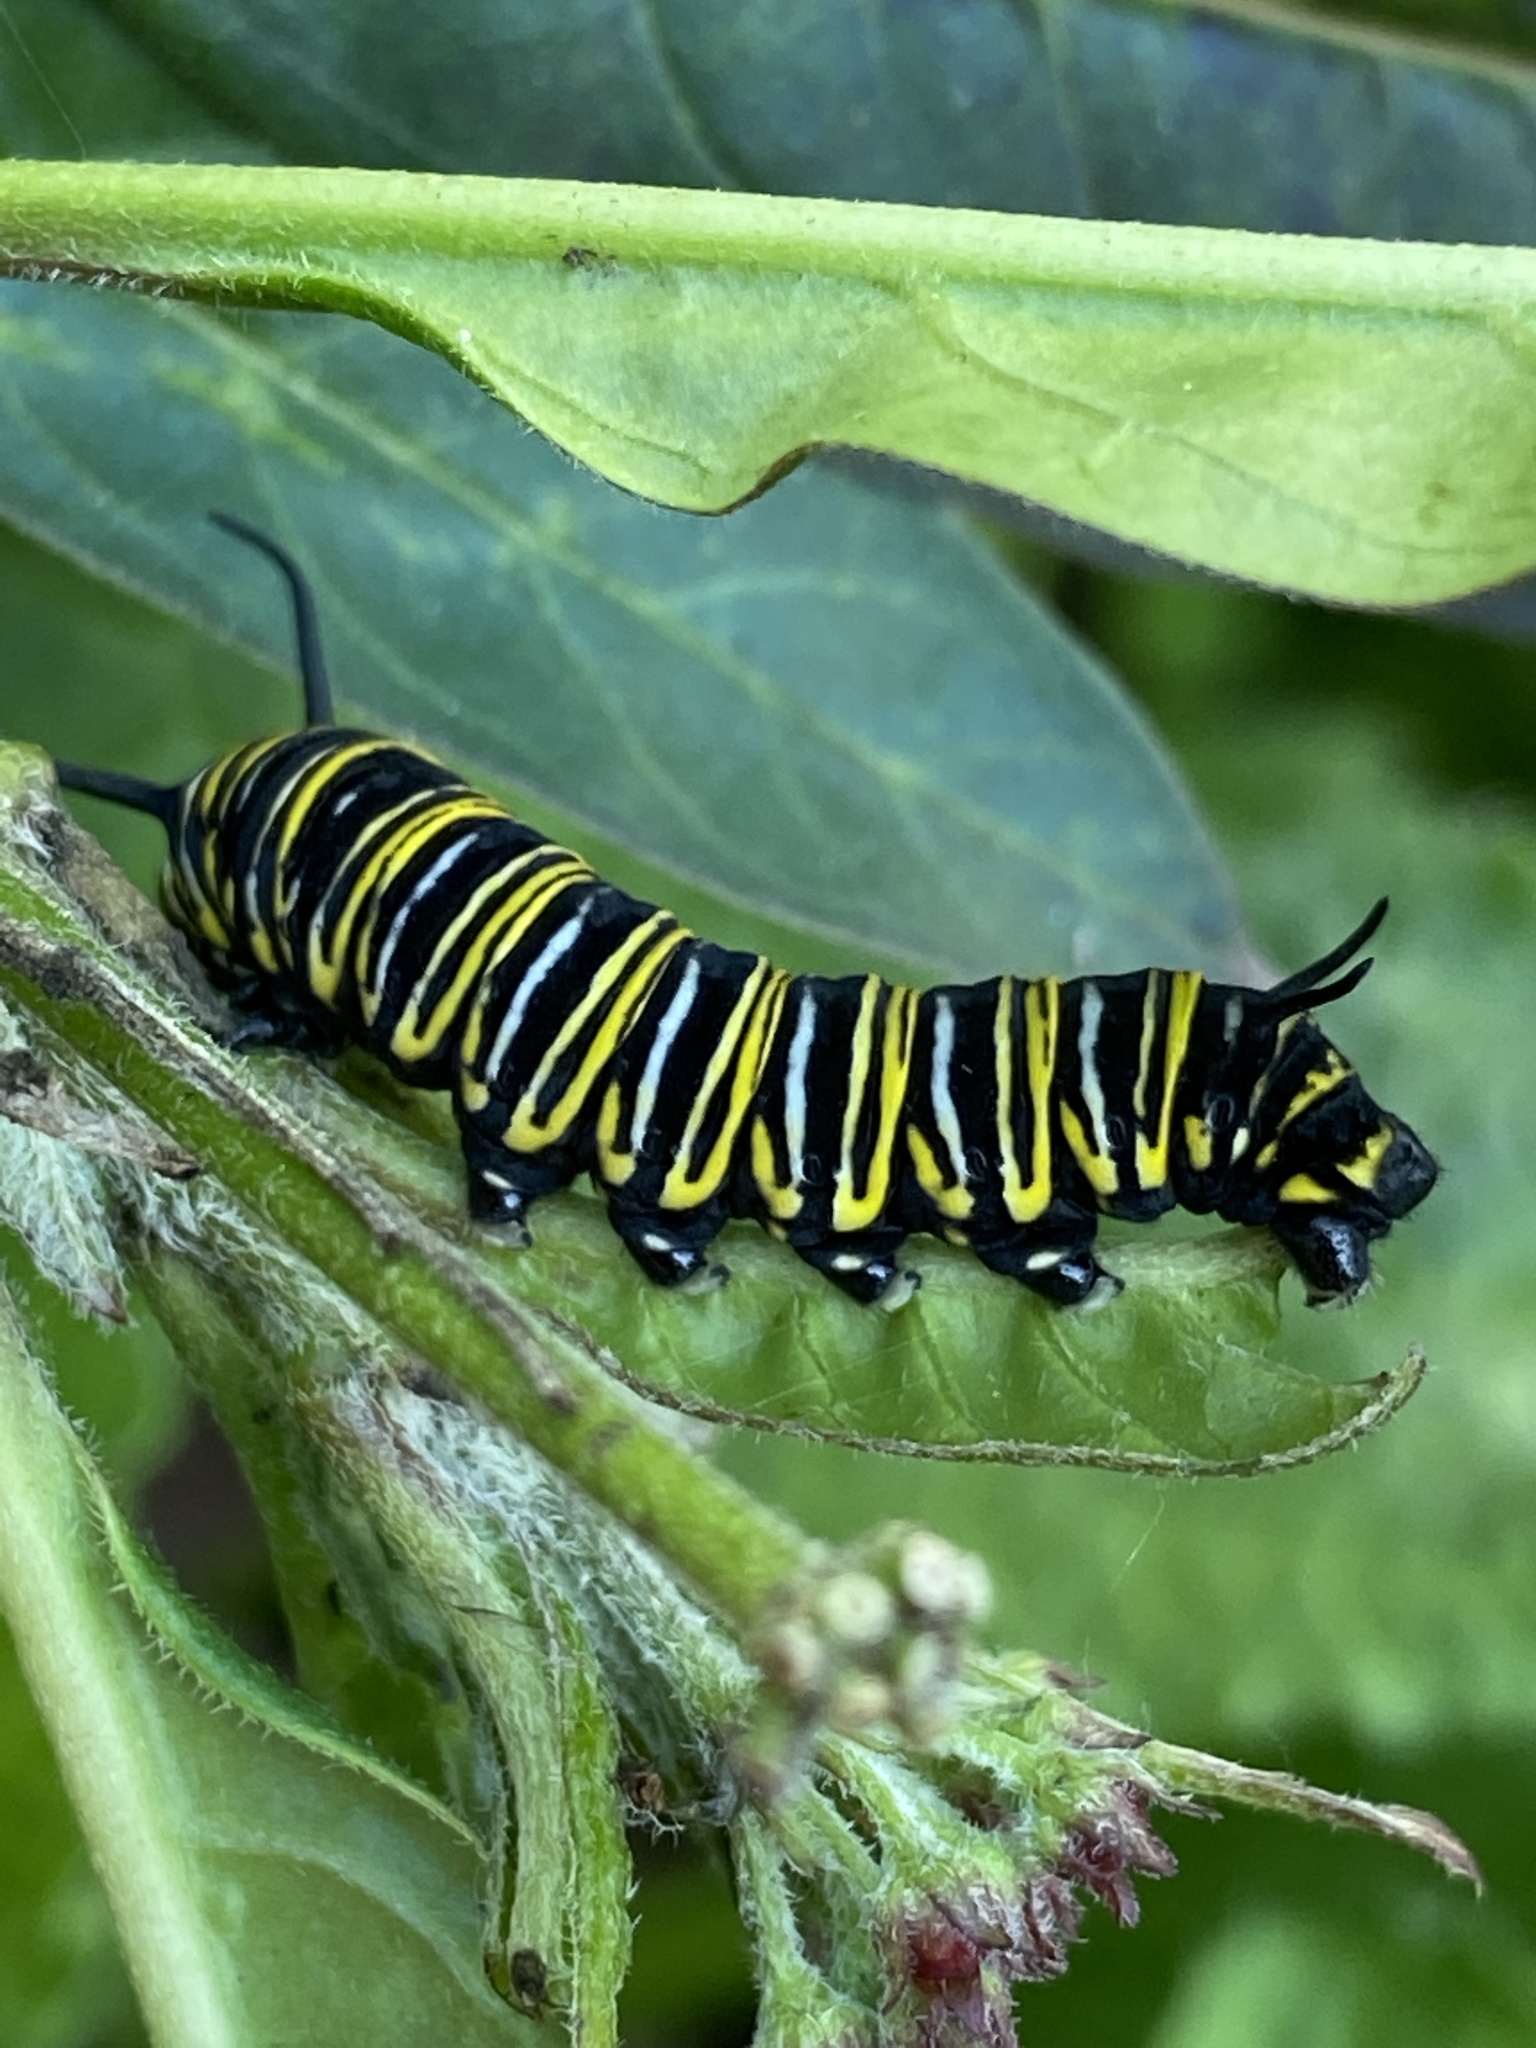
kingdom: Animalia
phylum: Arthropoda
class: Insecta
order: Lepidoptera
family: Nymphalidae
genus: Danaus
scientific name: Danaus plexippus
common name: Monarch
